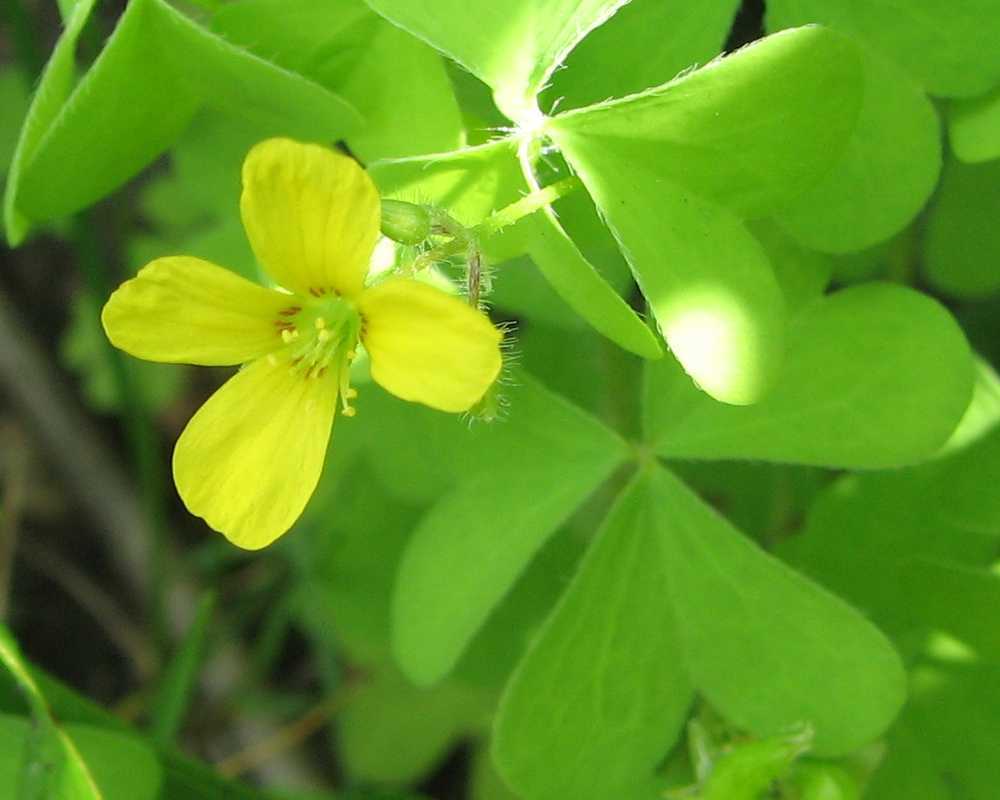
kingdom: Plantae
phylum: Tracheophyta
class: Magnoliopsida
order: Oxalidales
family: Oxalidaceae
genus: Oxalis
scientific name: Oxalis stricta
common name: Upright yellow-sorrel
